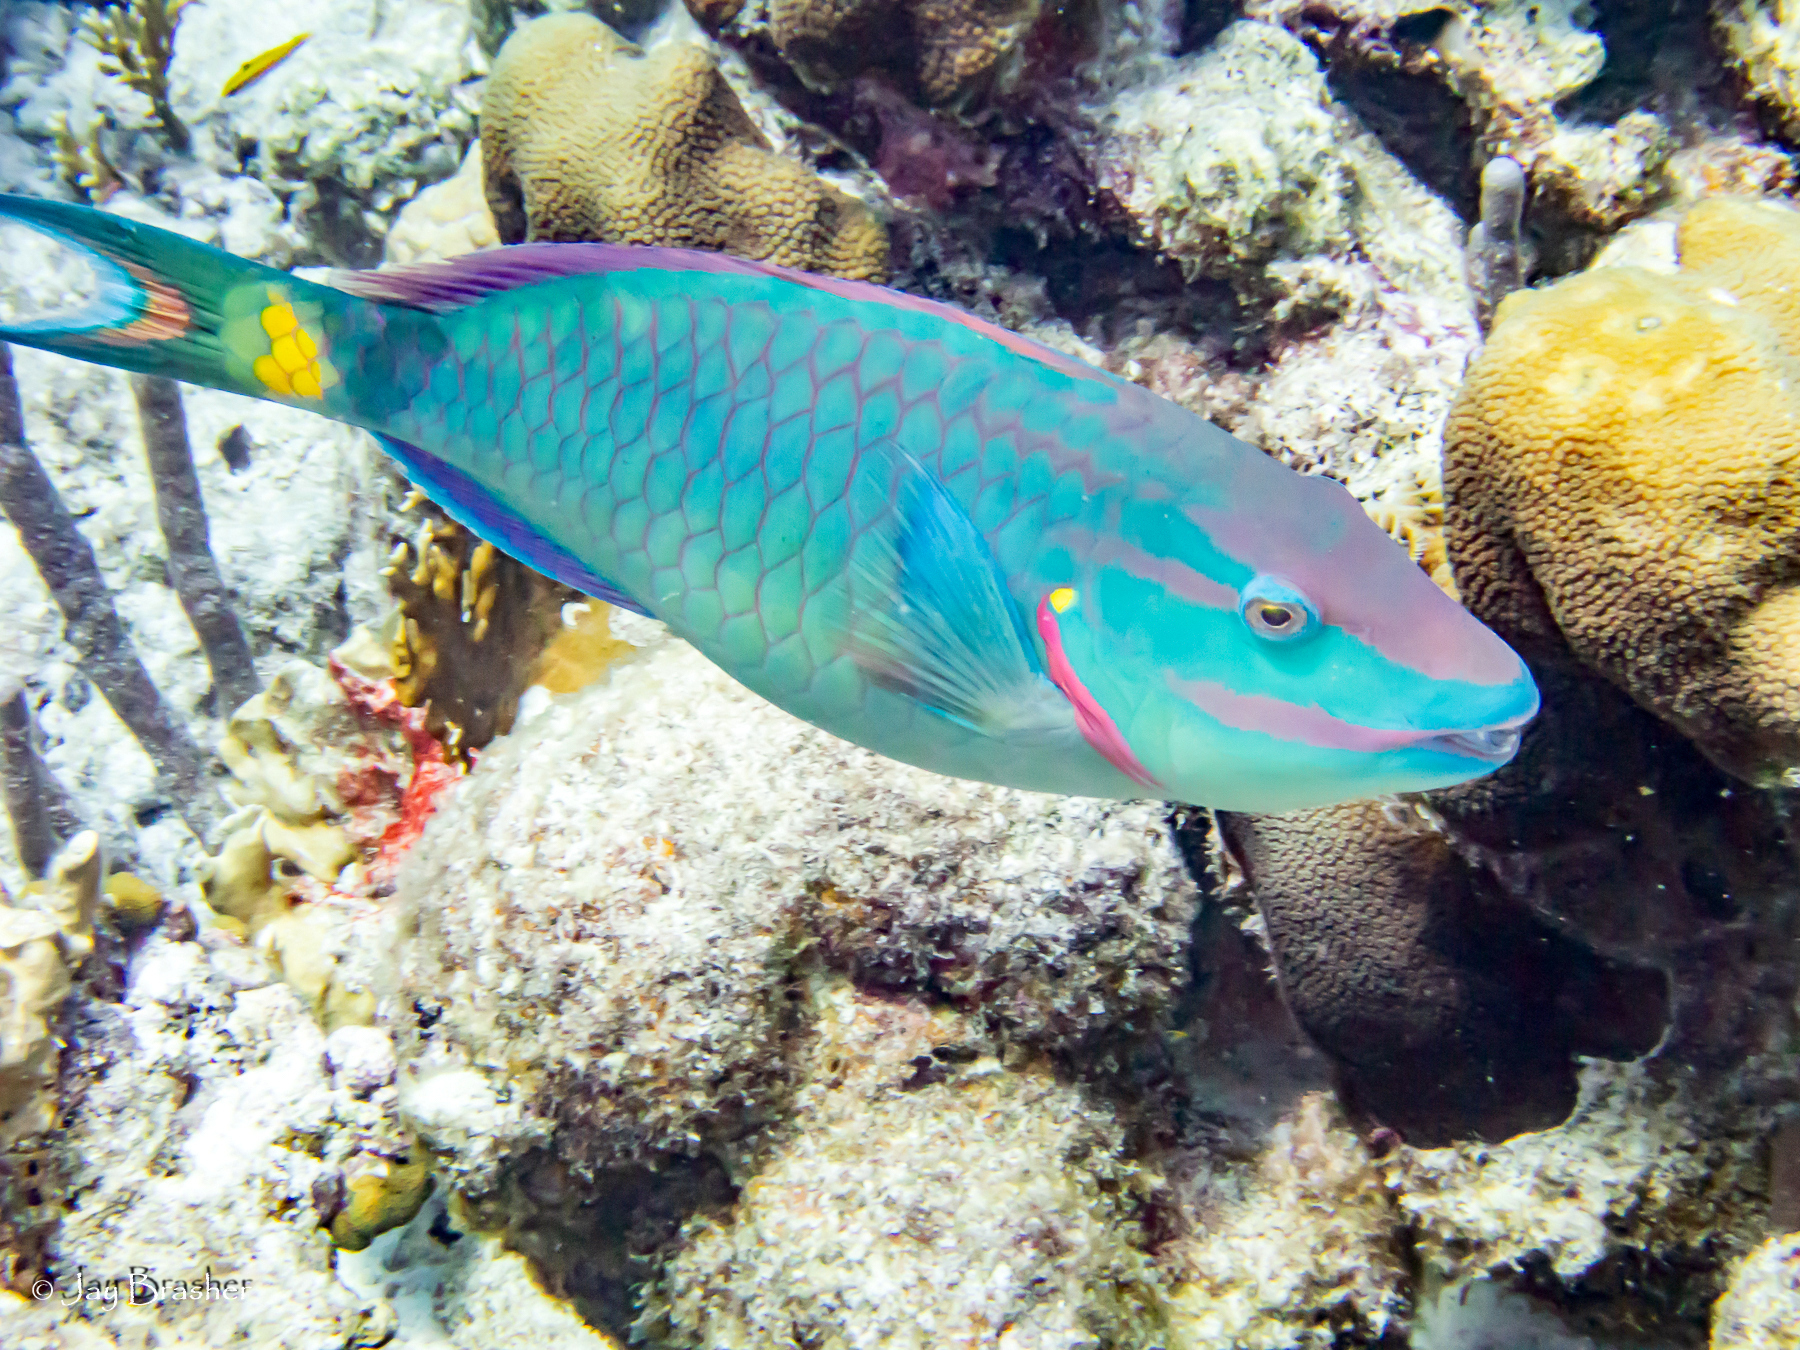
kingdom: Animalia
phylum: Chordata
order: Perciformes
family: Scaridae
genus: Sparisoma
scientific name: Sparisoma viride
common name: Stoplight parrotfish
